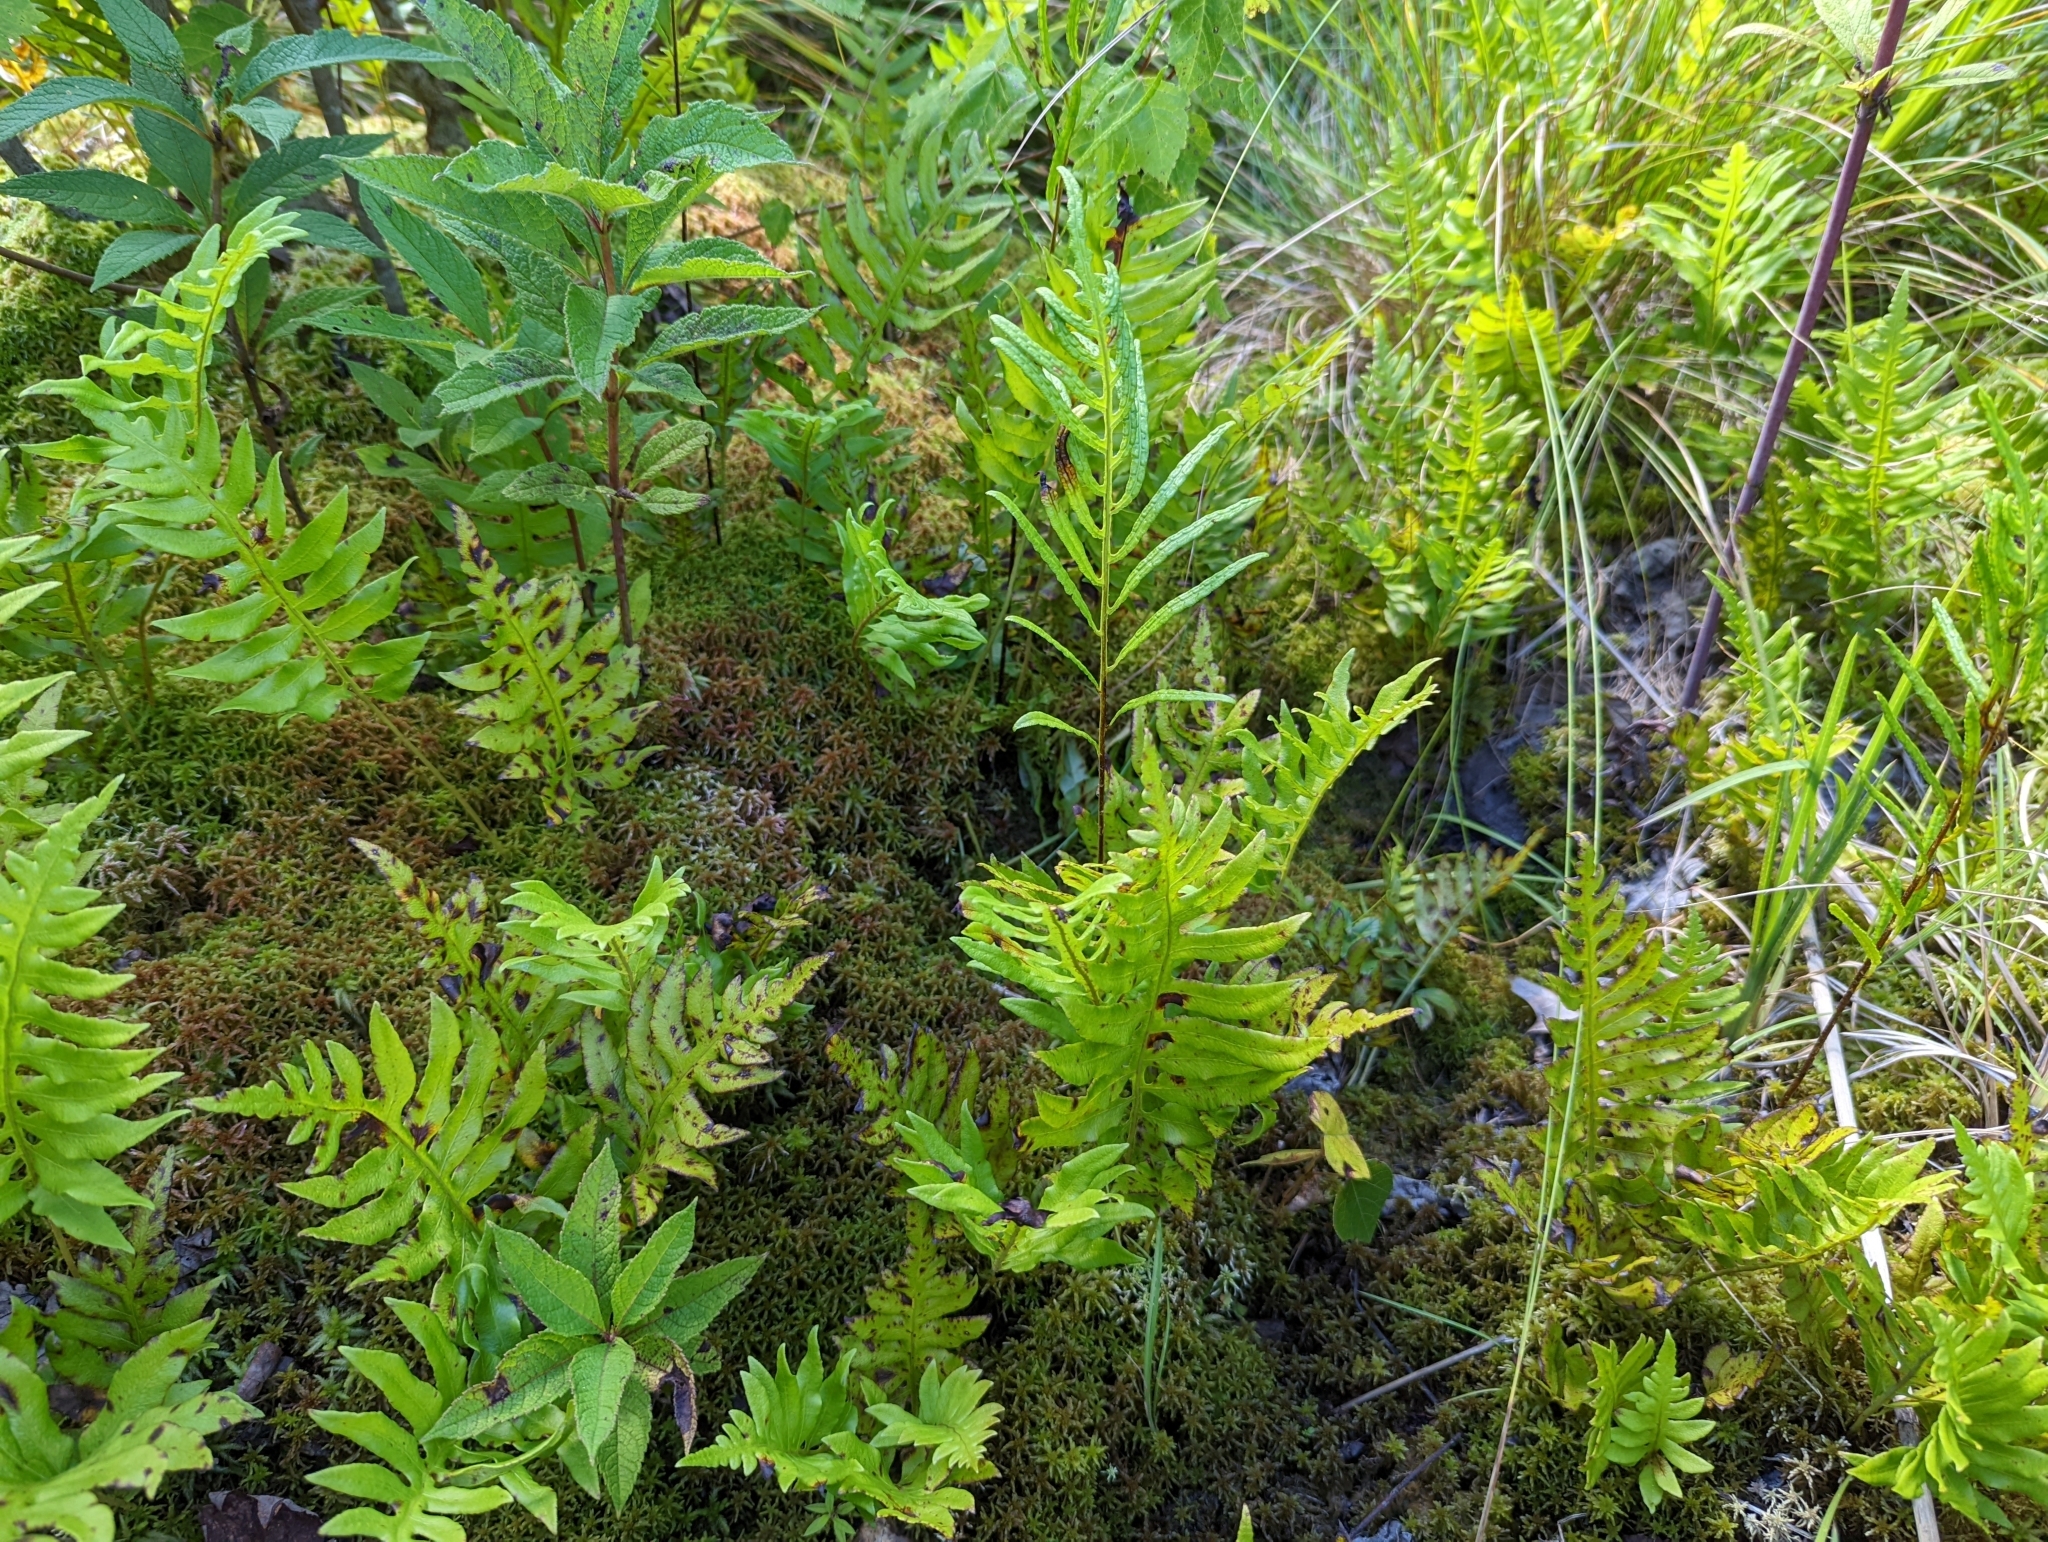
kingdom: Plantae
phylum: Tracheophyta
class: Polypodiopsida
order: Polypodiales
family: Blechnaceae
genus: Lorinseria
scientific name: Lorinseria areolata
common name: Dwarf chain fern
